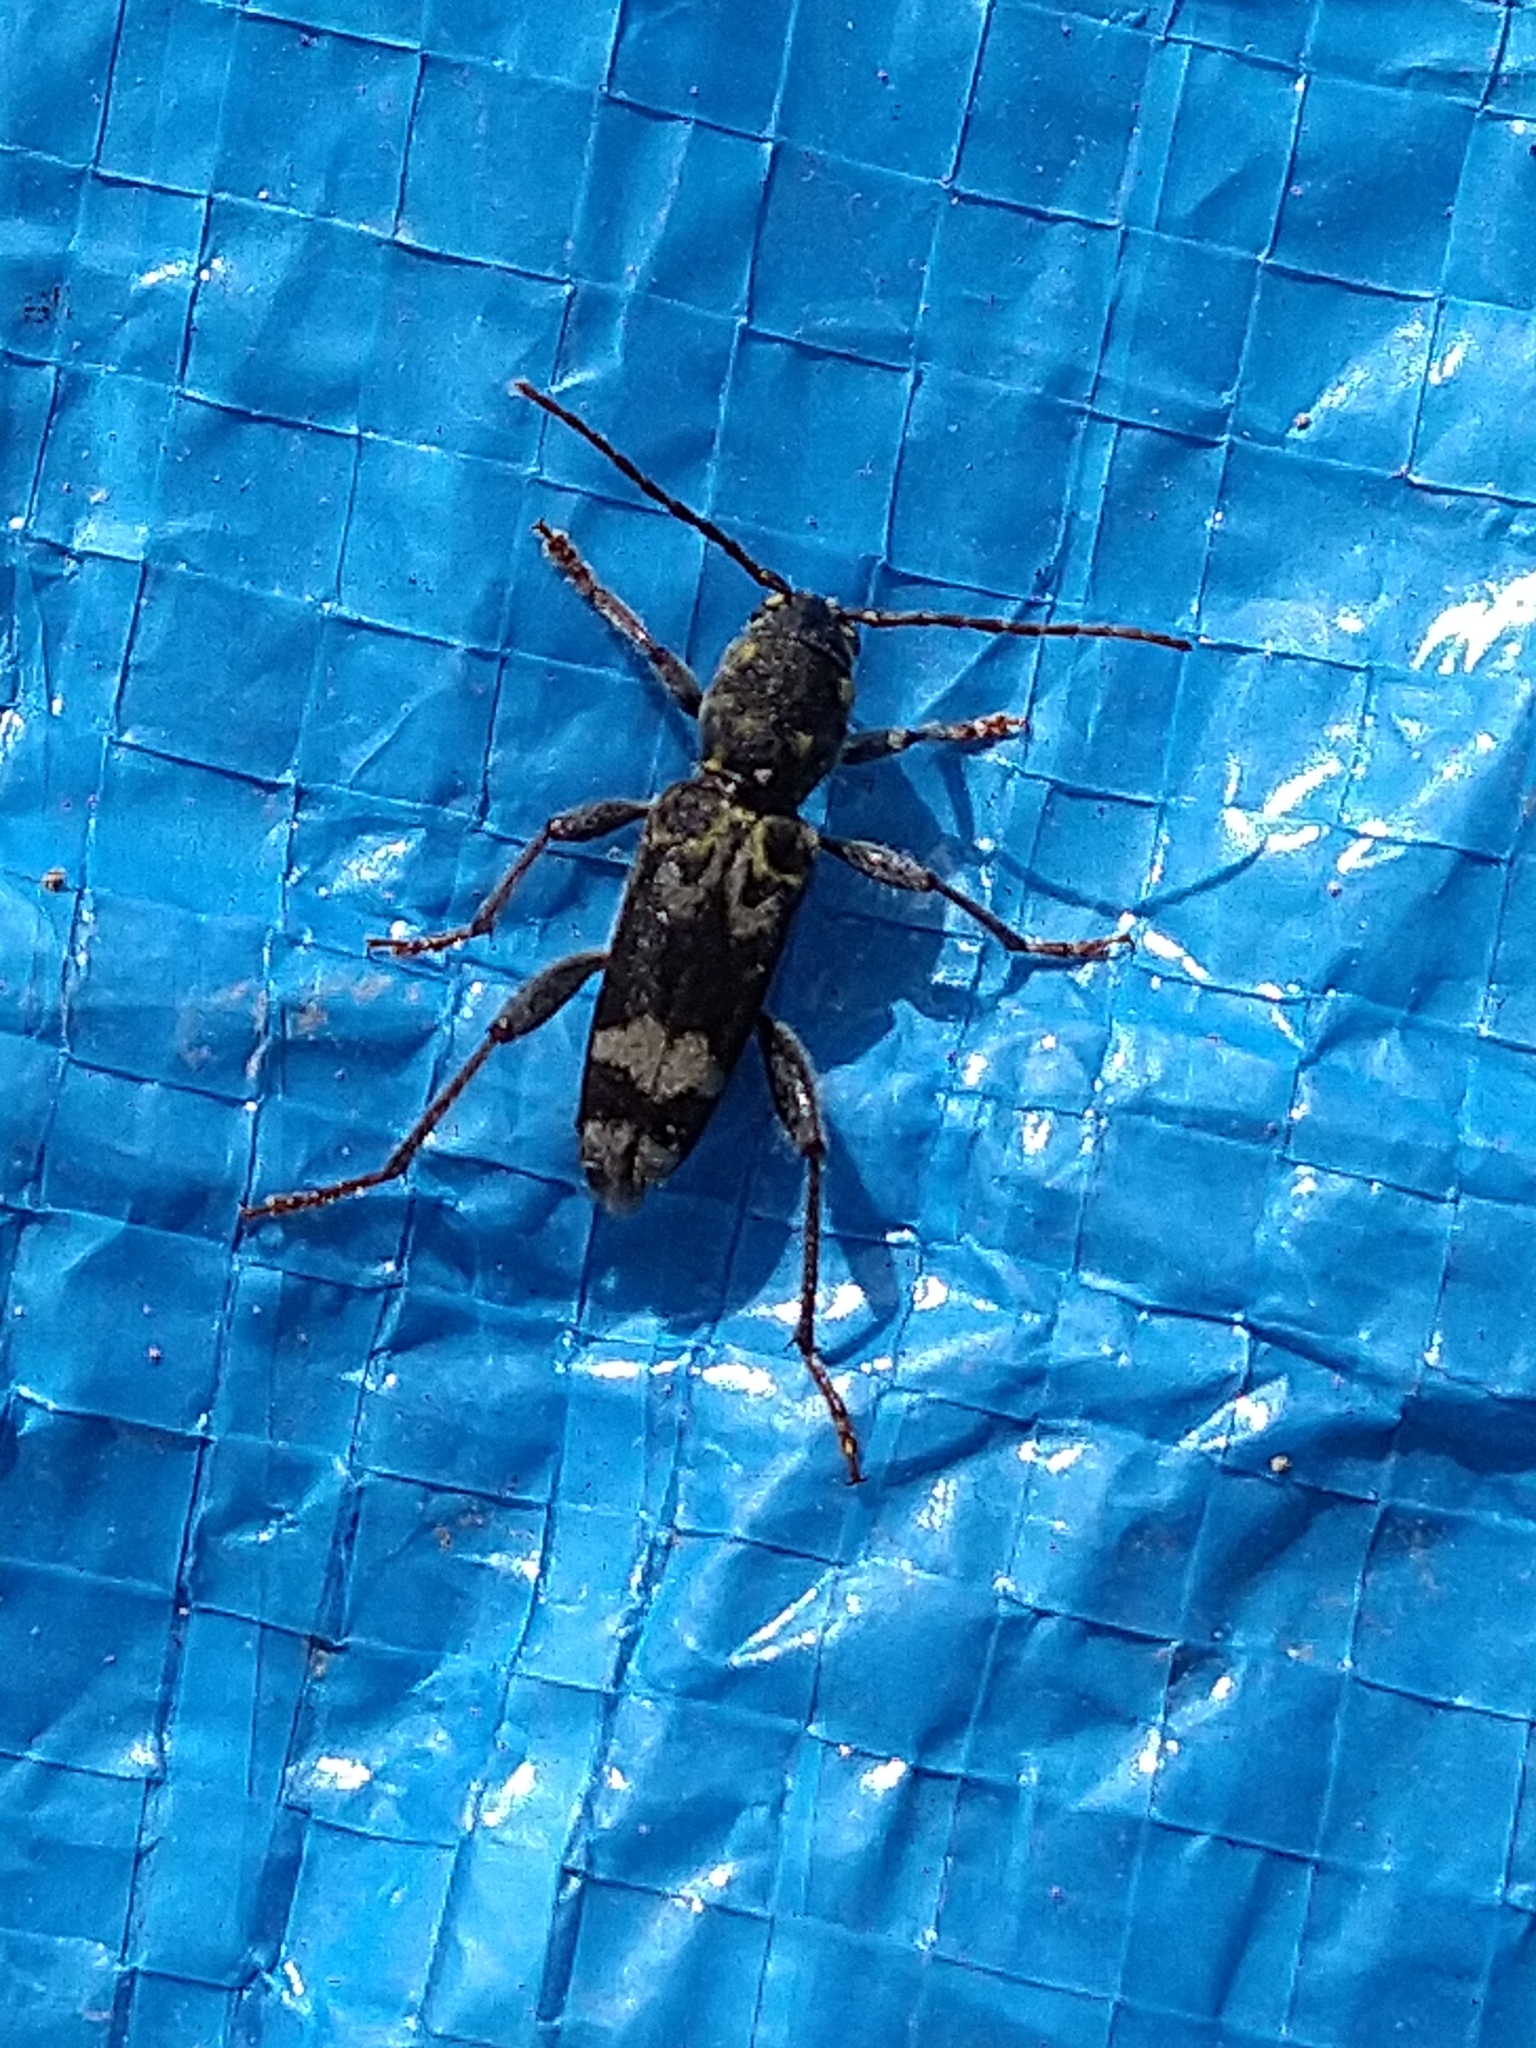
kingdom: Animalia
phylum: Arthropoda
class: Insecta
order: Coleoptera
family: Cerambycidae
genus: Xylotrechus
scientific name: Xylotrechus colonus
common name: Long-horned beetle
